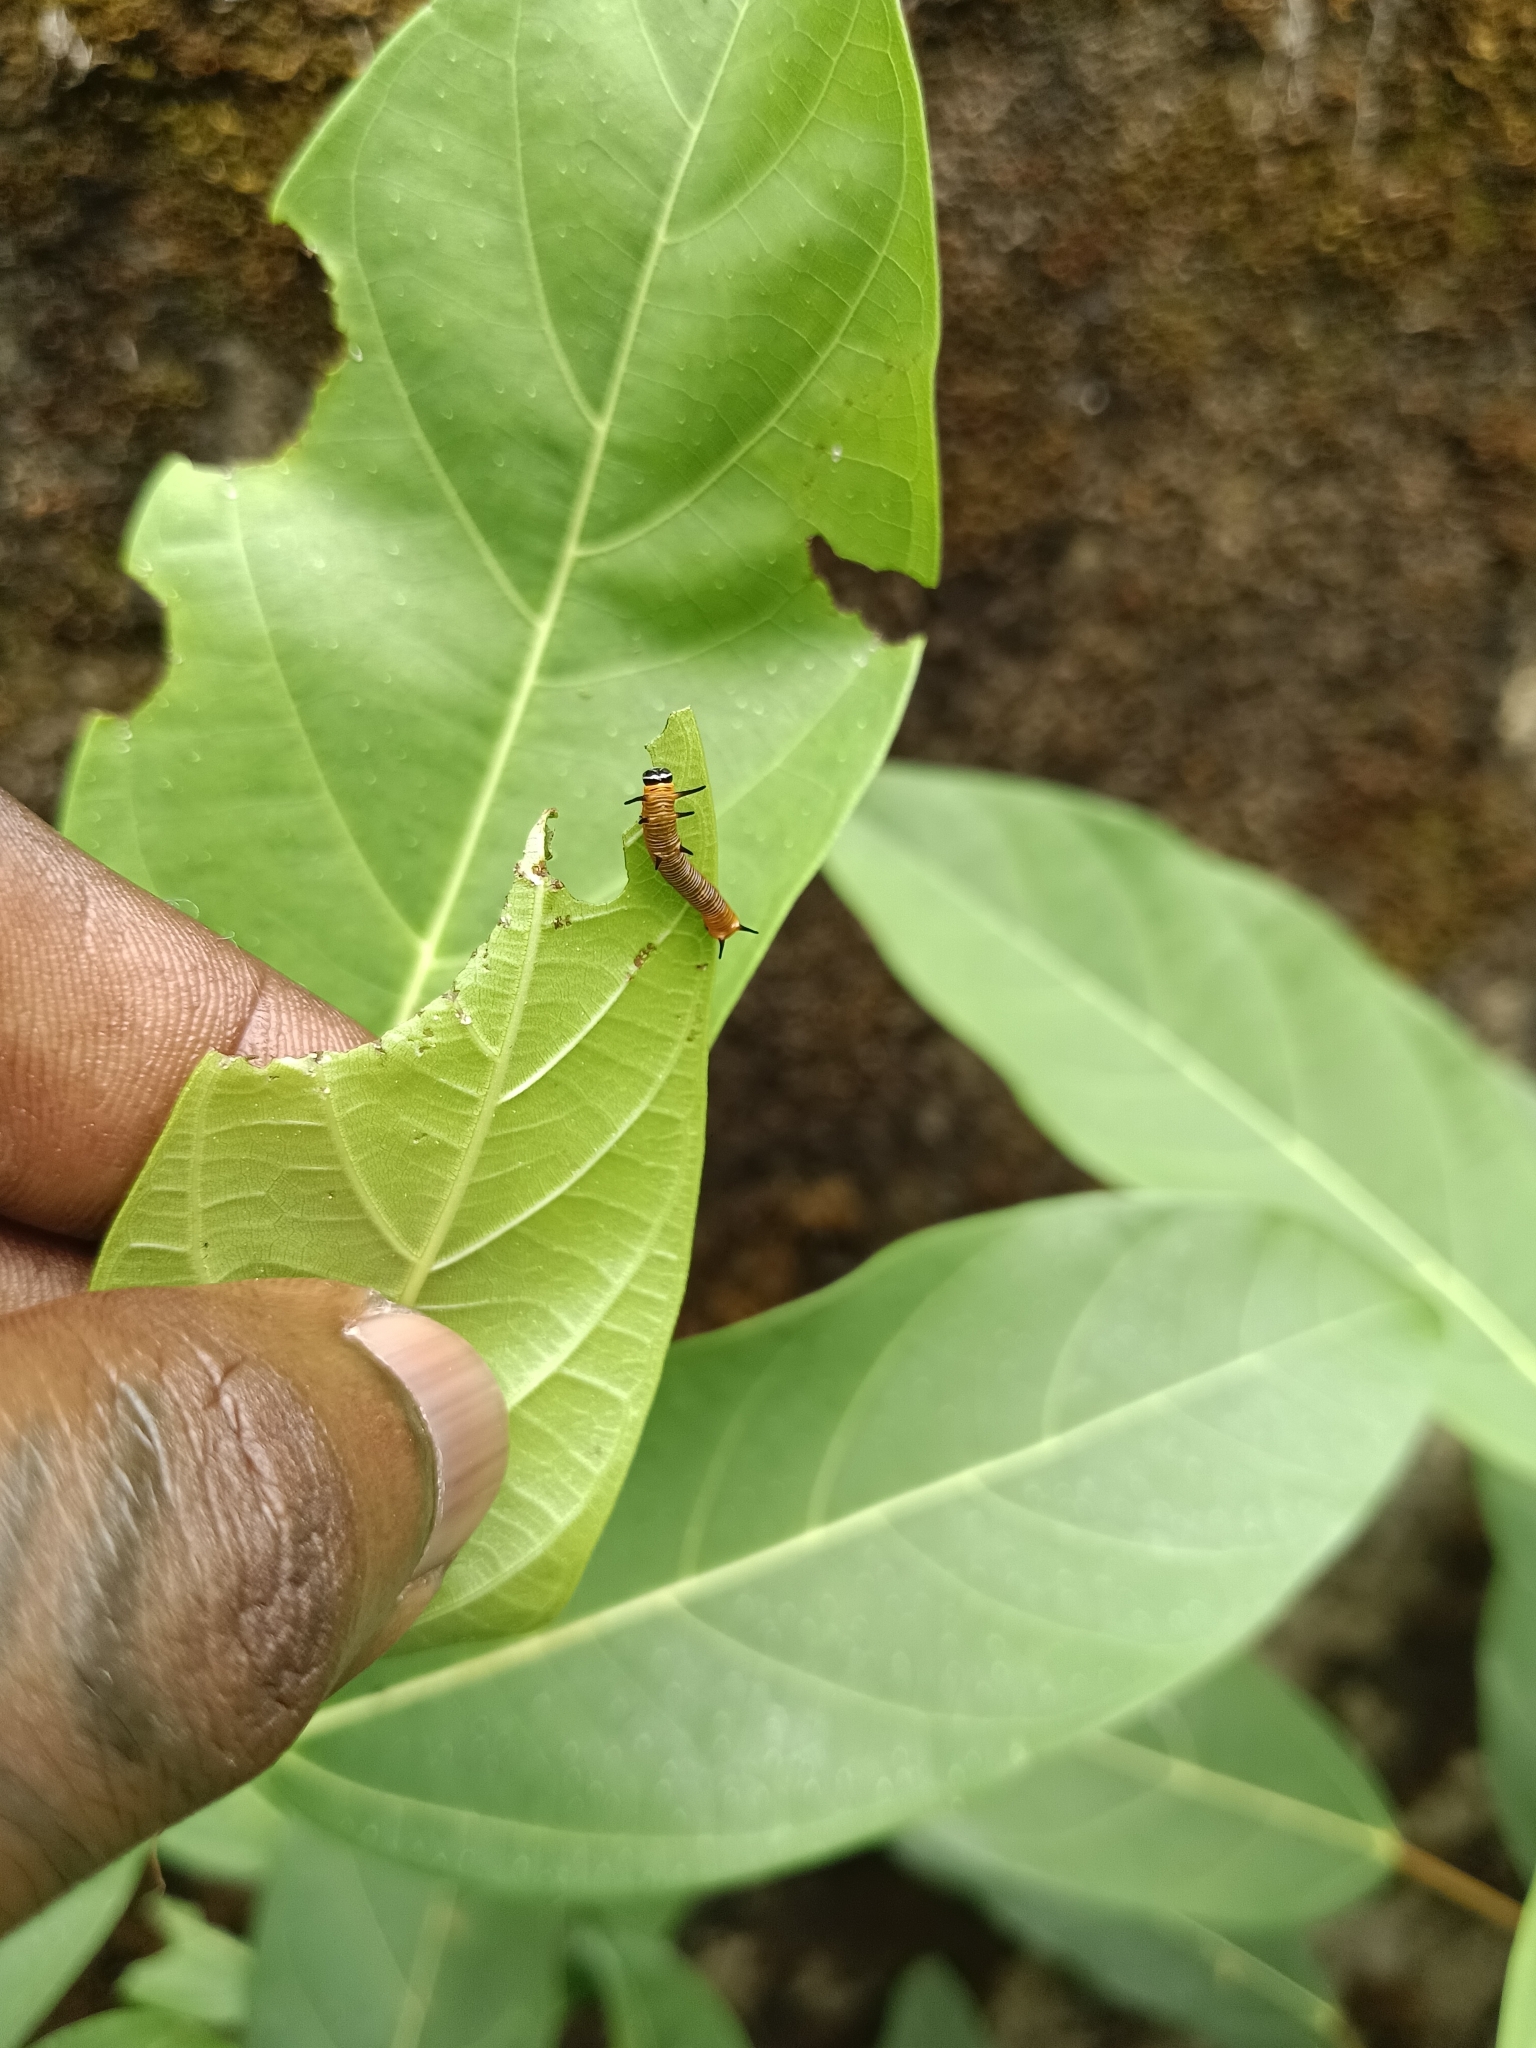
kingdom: Animalia
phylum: Arthropoda
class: Insecta
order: Lepidoptera
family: Nymphalidae
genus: Euploea
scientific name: Euploea core
